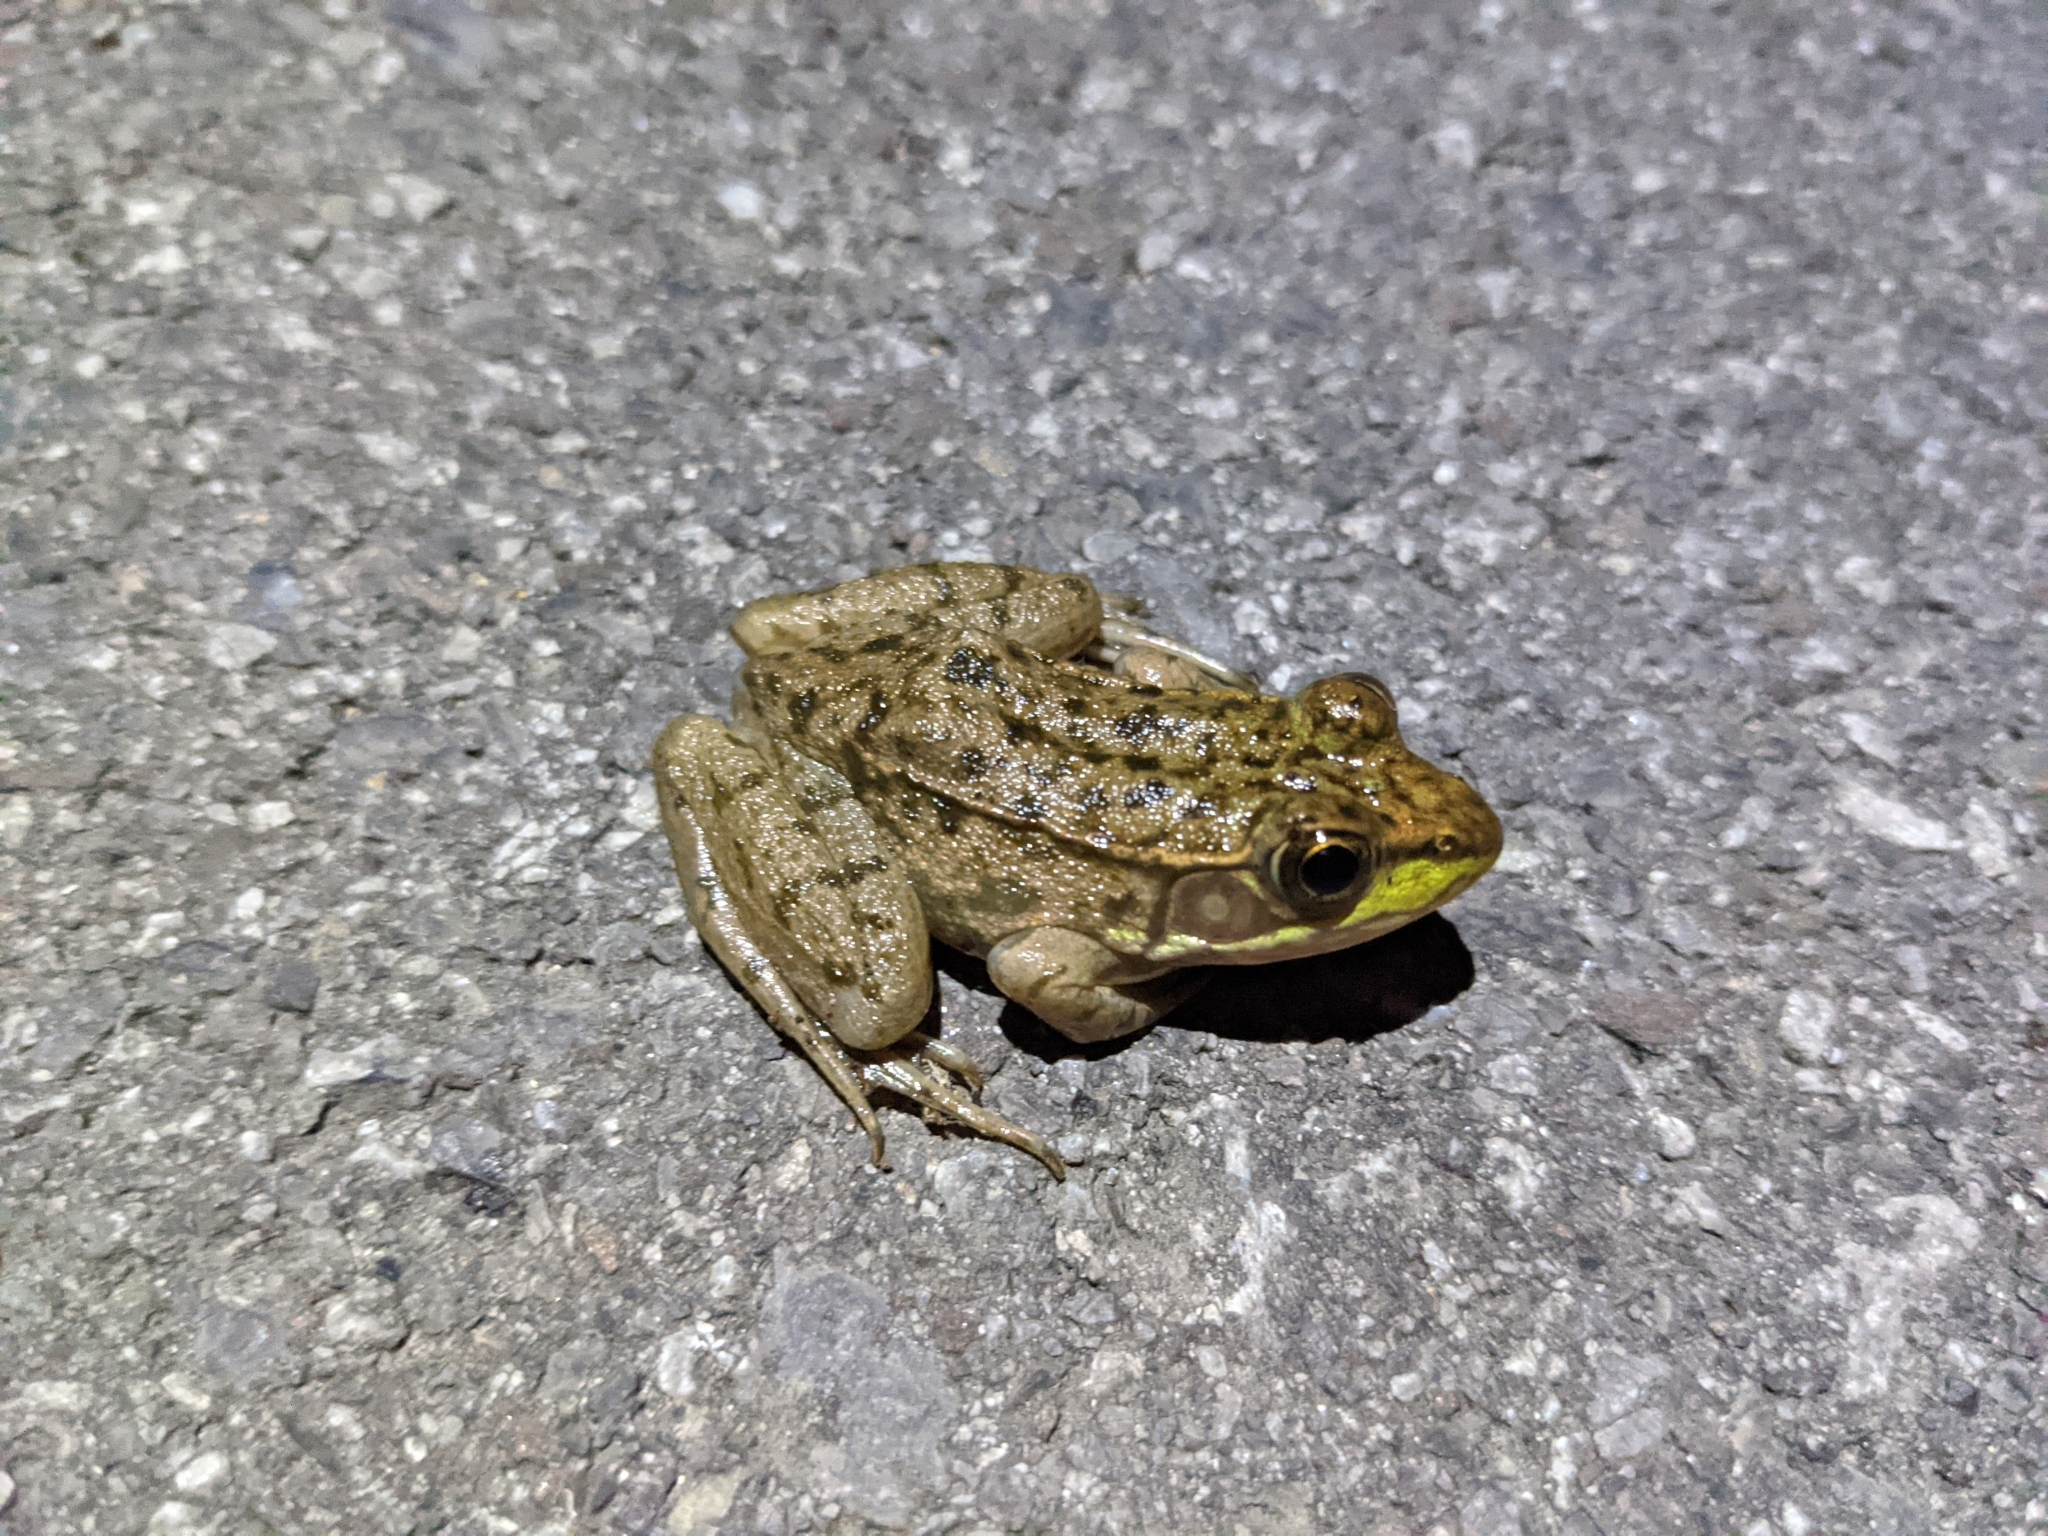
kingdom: Animalia
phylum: Chordata
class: Amphibia
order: Anura
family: Ranidae
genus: Lithobates
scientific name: Lithobates clamitans
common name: Green frog
